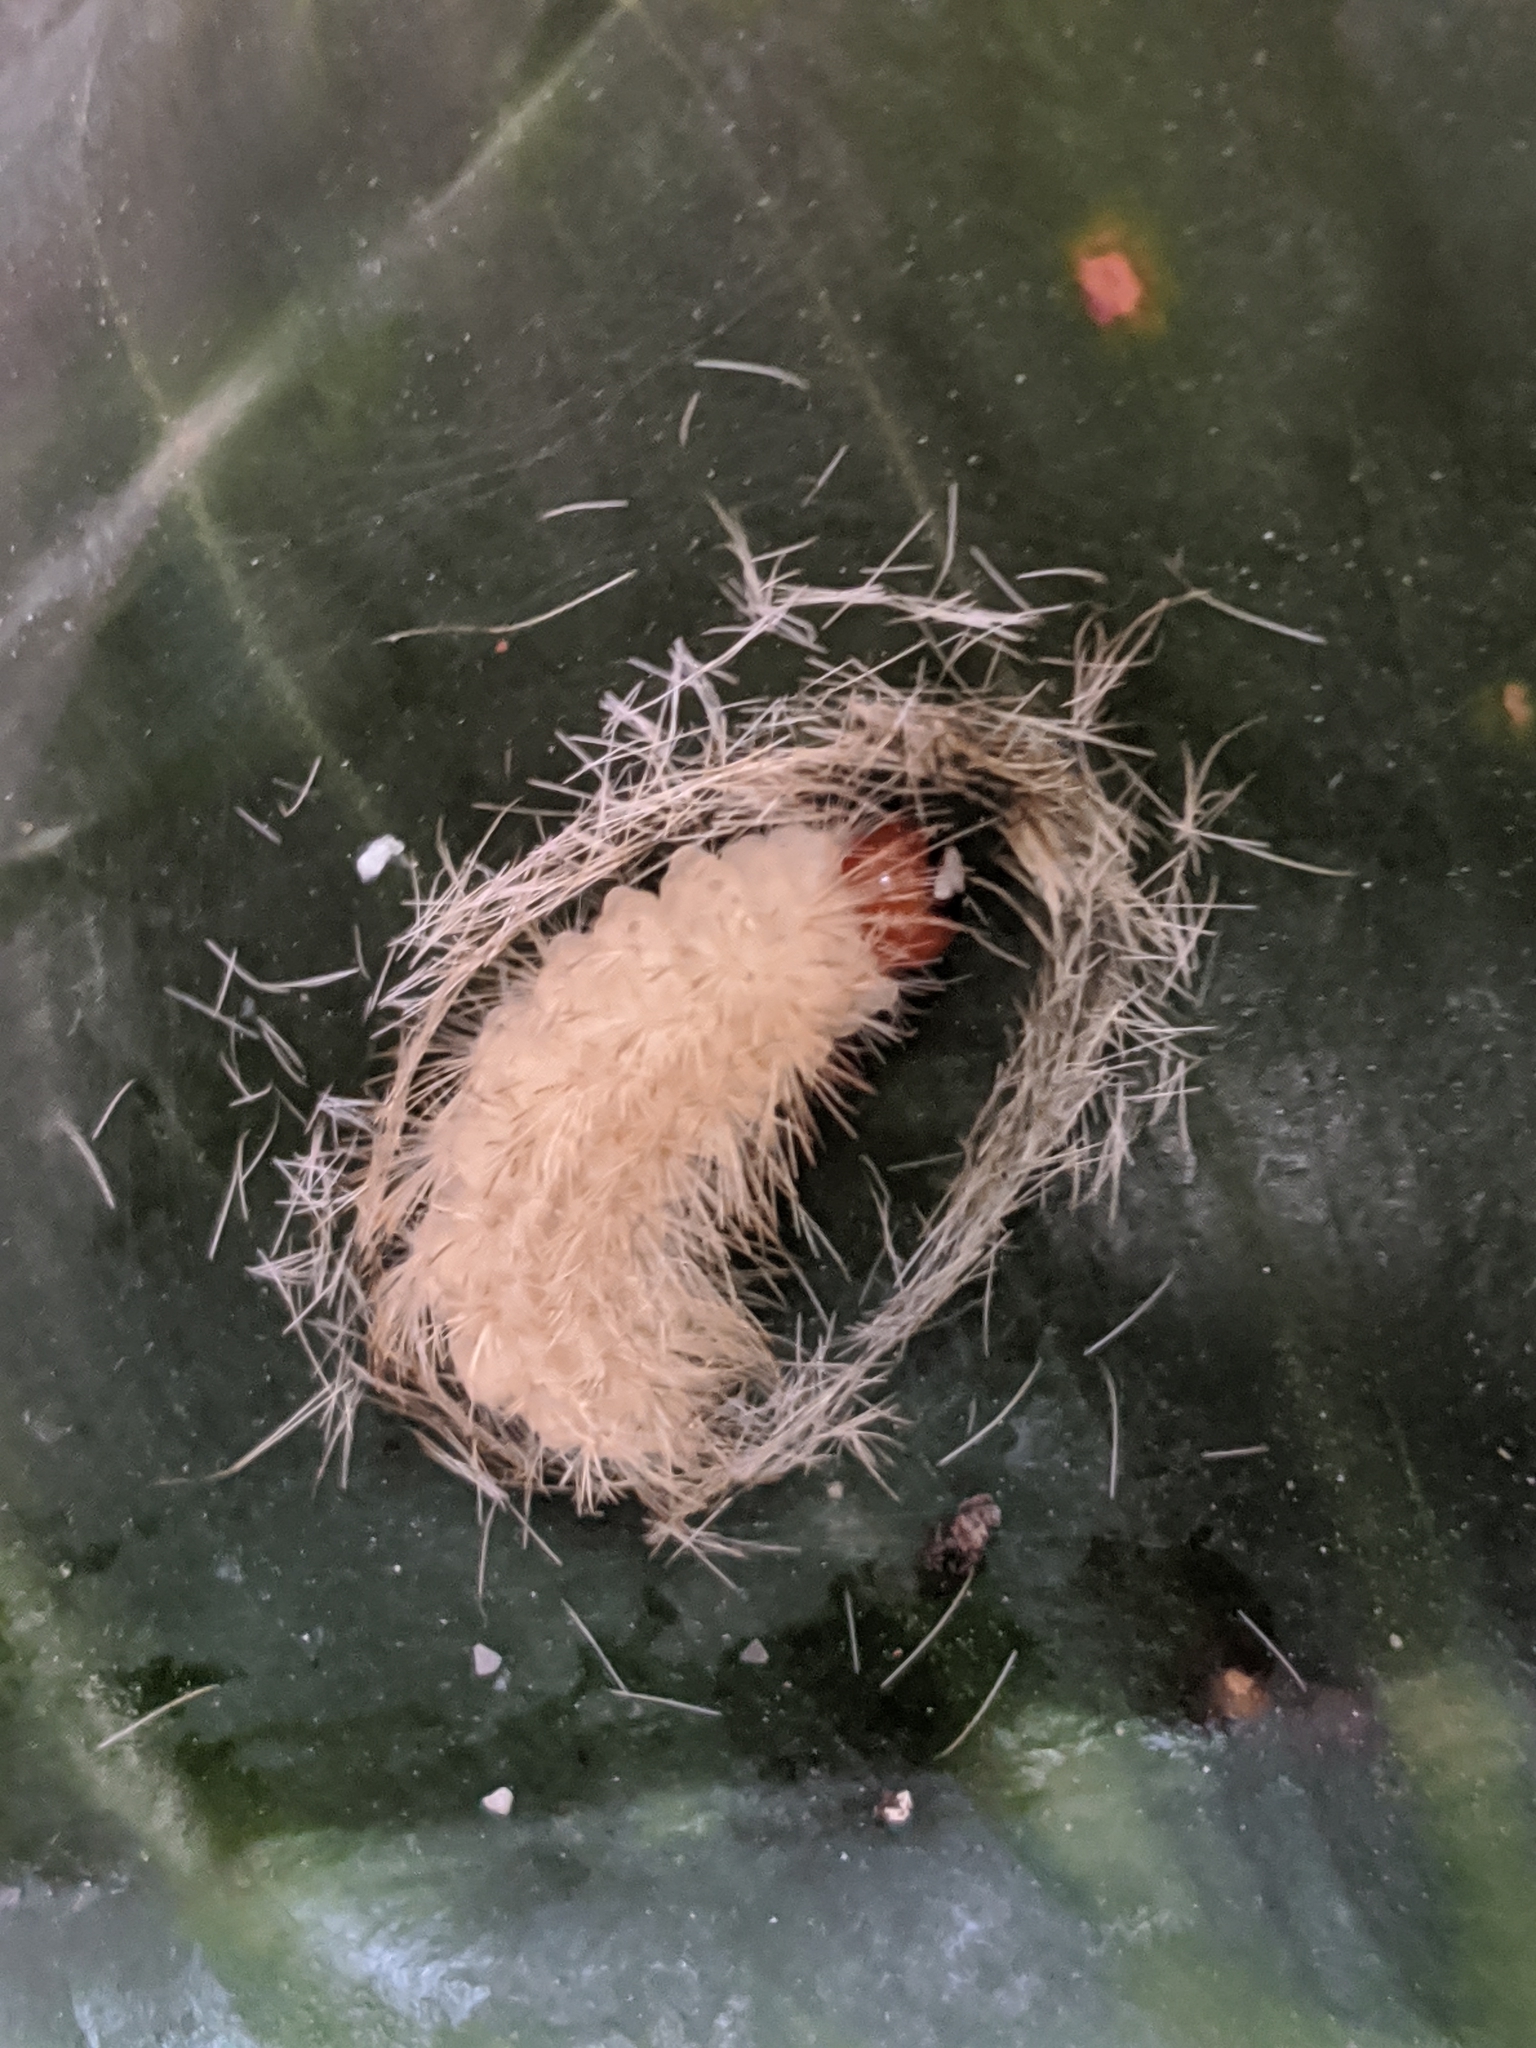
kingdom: Animalia
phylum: Arthropoda
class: Insecta
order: Lepidoptera
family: Erebidae
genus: Lymire
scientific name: Lymire edwardsii
